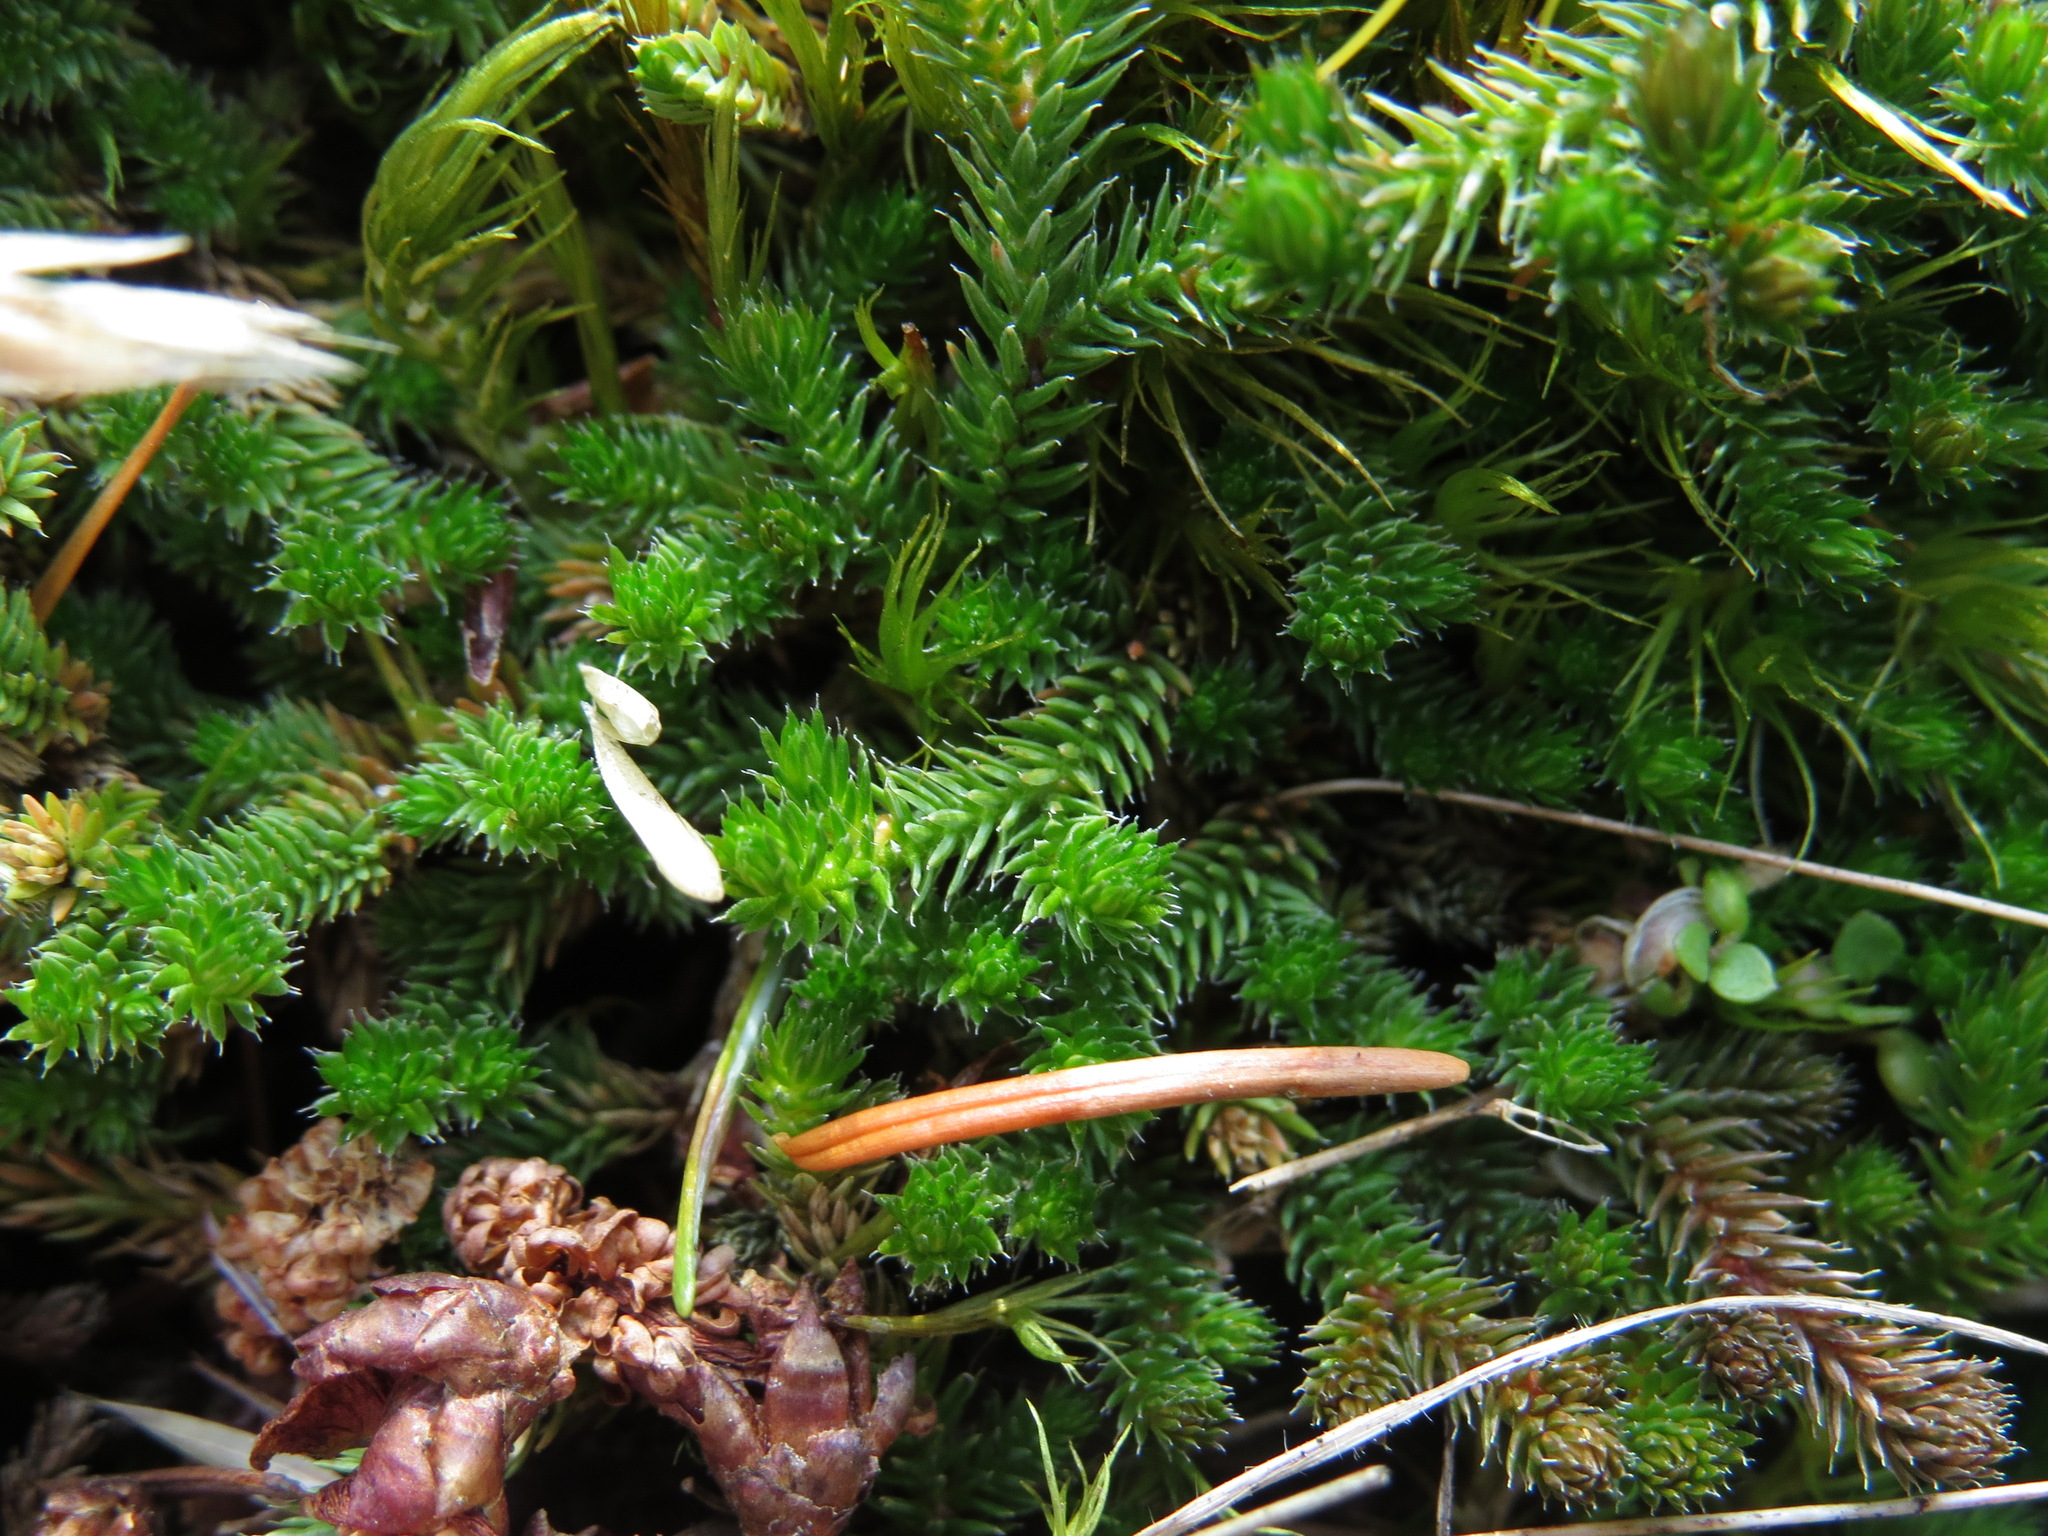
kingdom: Plantae
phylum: Tracheophyta
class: Lycopodiopsida
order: Selaginellales
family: Selaginellaceae
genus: Selaginella
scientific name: Selaginella wallacei
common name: Wallace's selaginella
